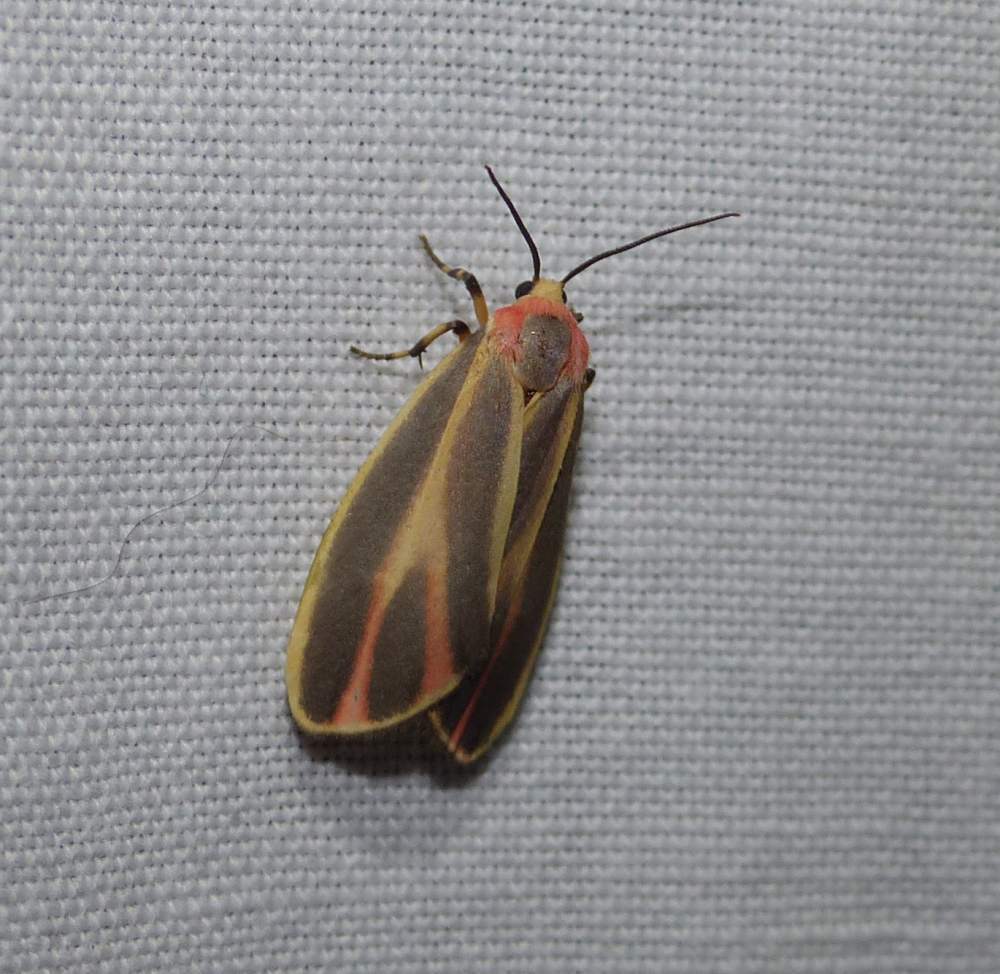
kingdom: Animalia
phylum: Arthropoda
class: Insecta
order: Lepidoptera
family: Erebidae
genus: Hypoprepia
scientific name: Hypoprepia fucosa
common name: Painted lichen moth
